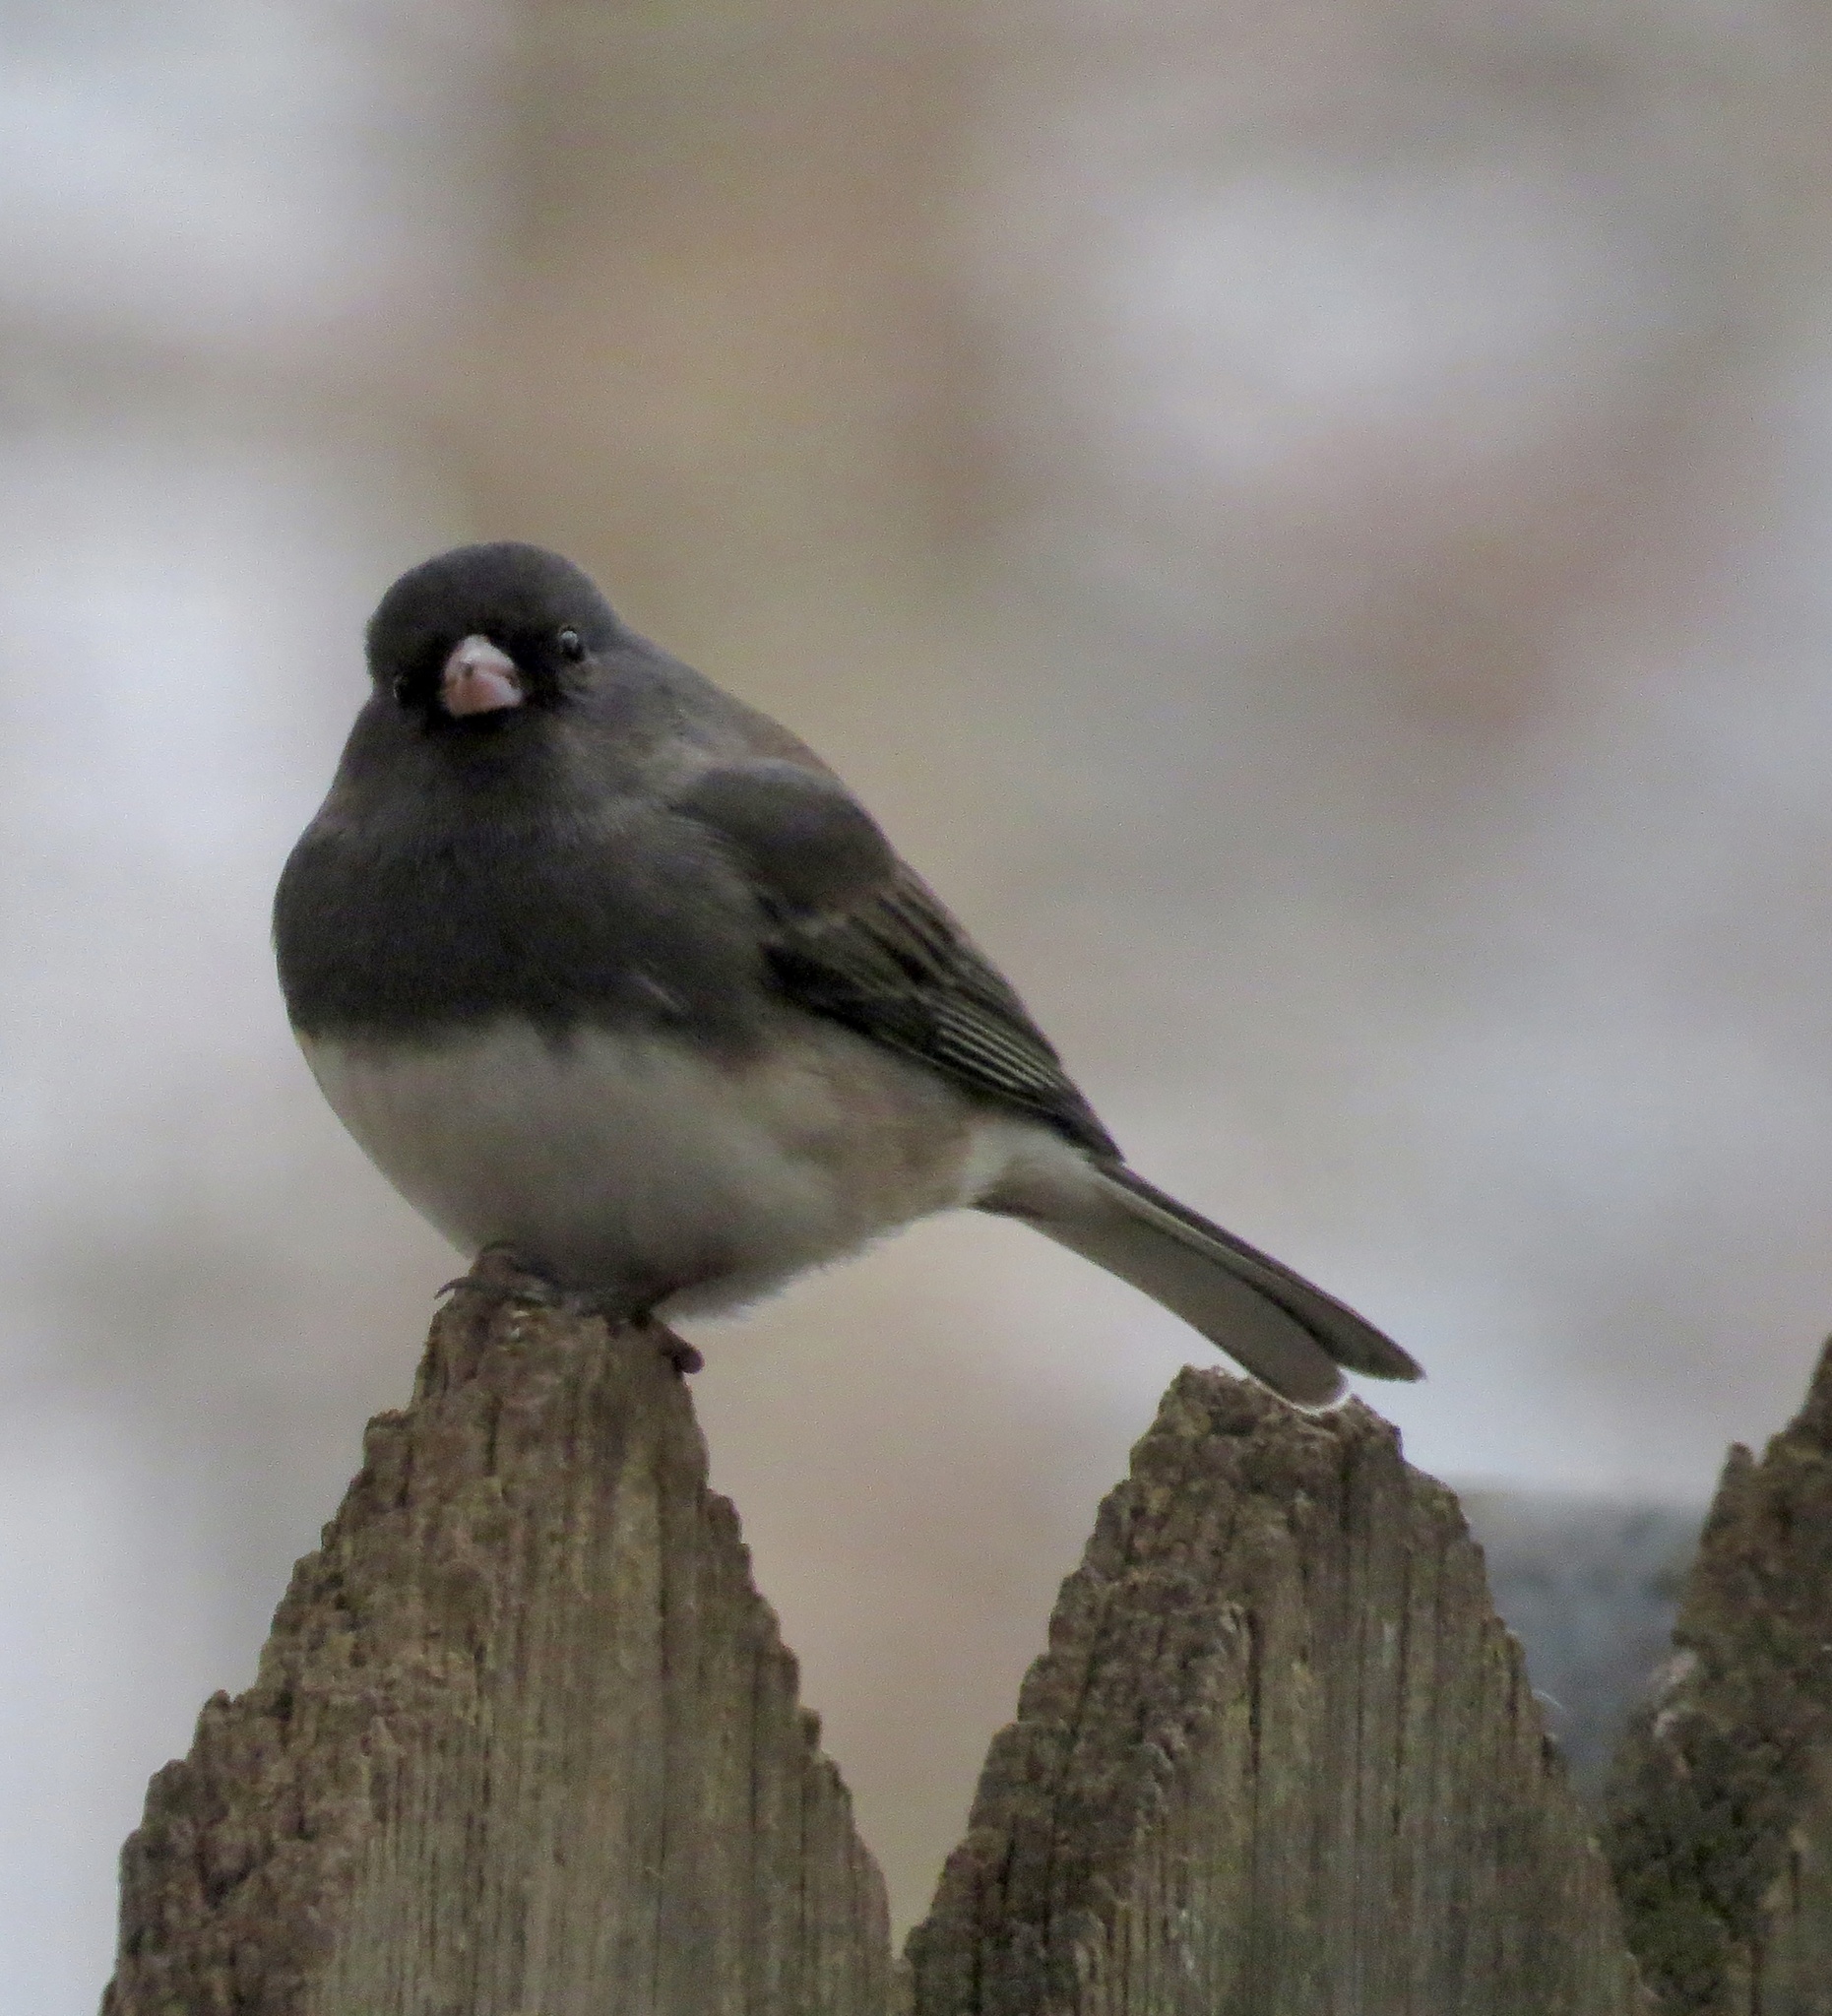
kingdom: Animalia
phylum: Chordata
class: Aves
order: Passeriformes
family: Passerellidae
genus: Junco
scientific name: Junco hyemalis
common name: Dark-eyed junco
